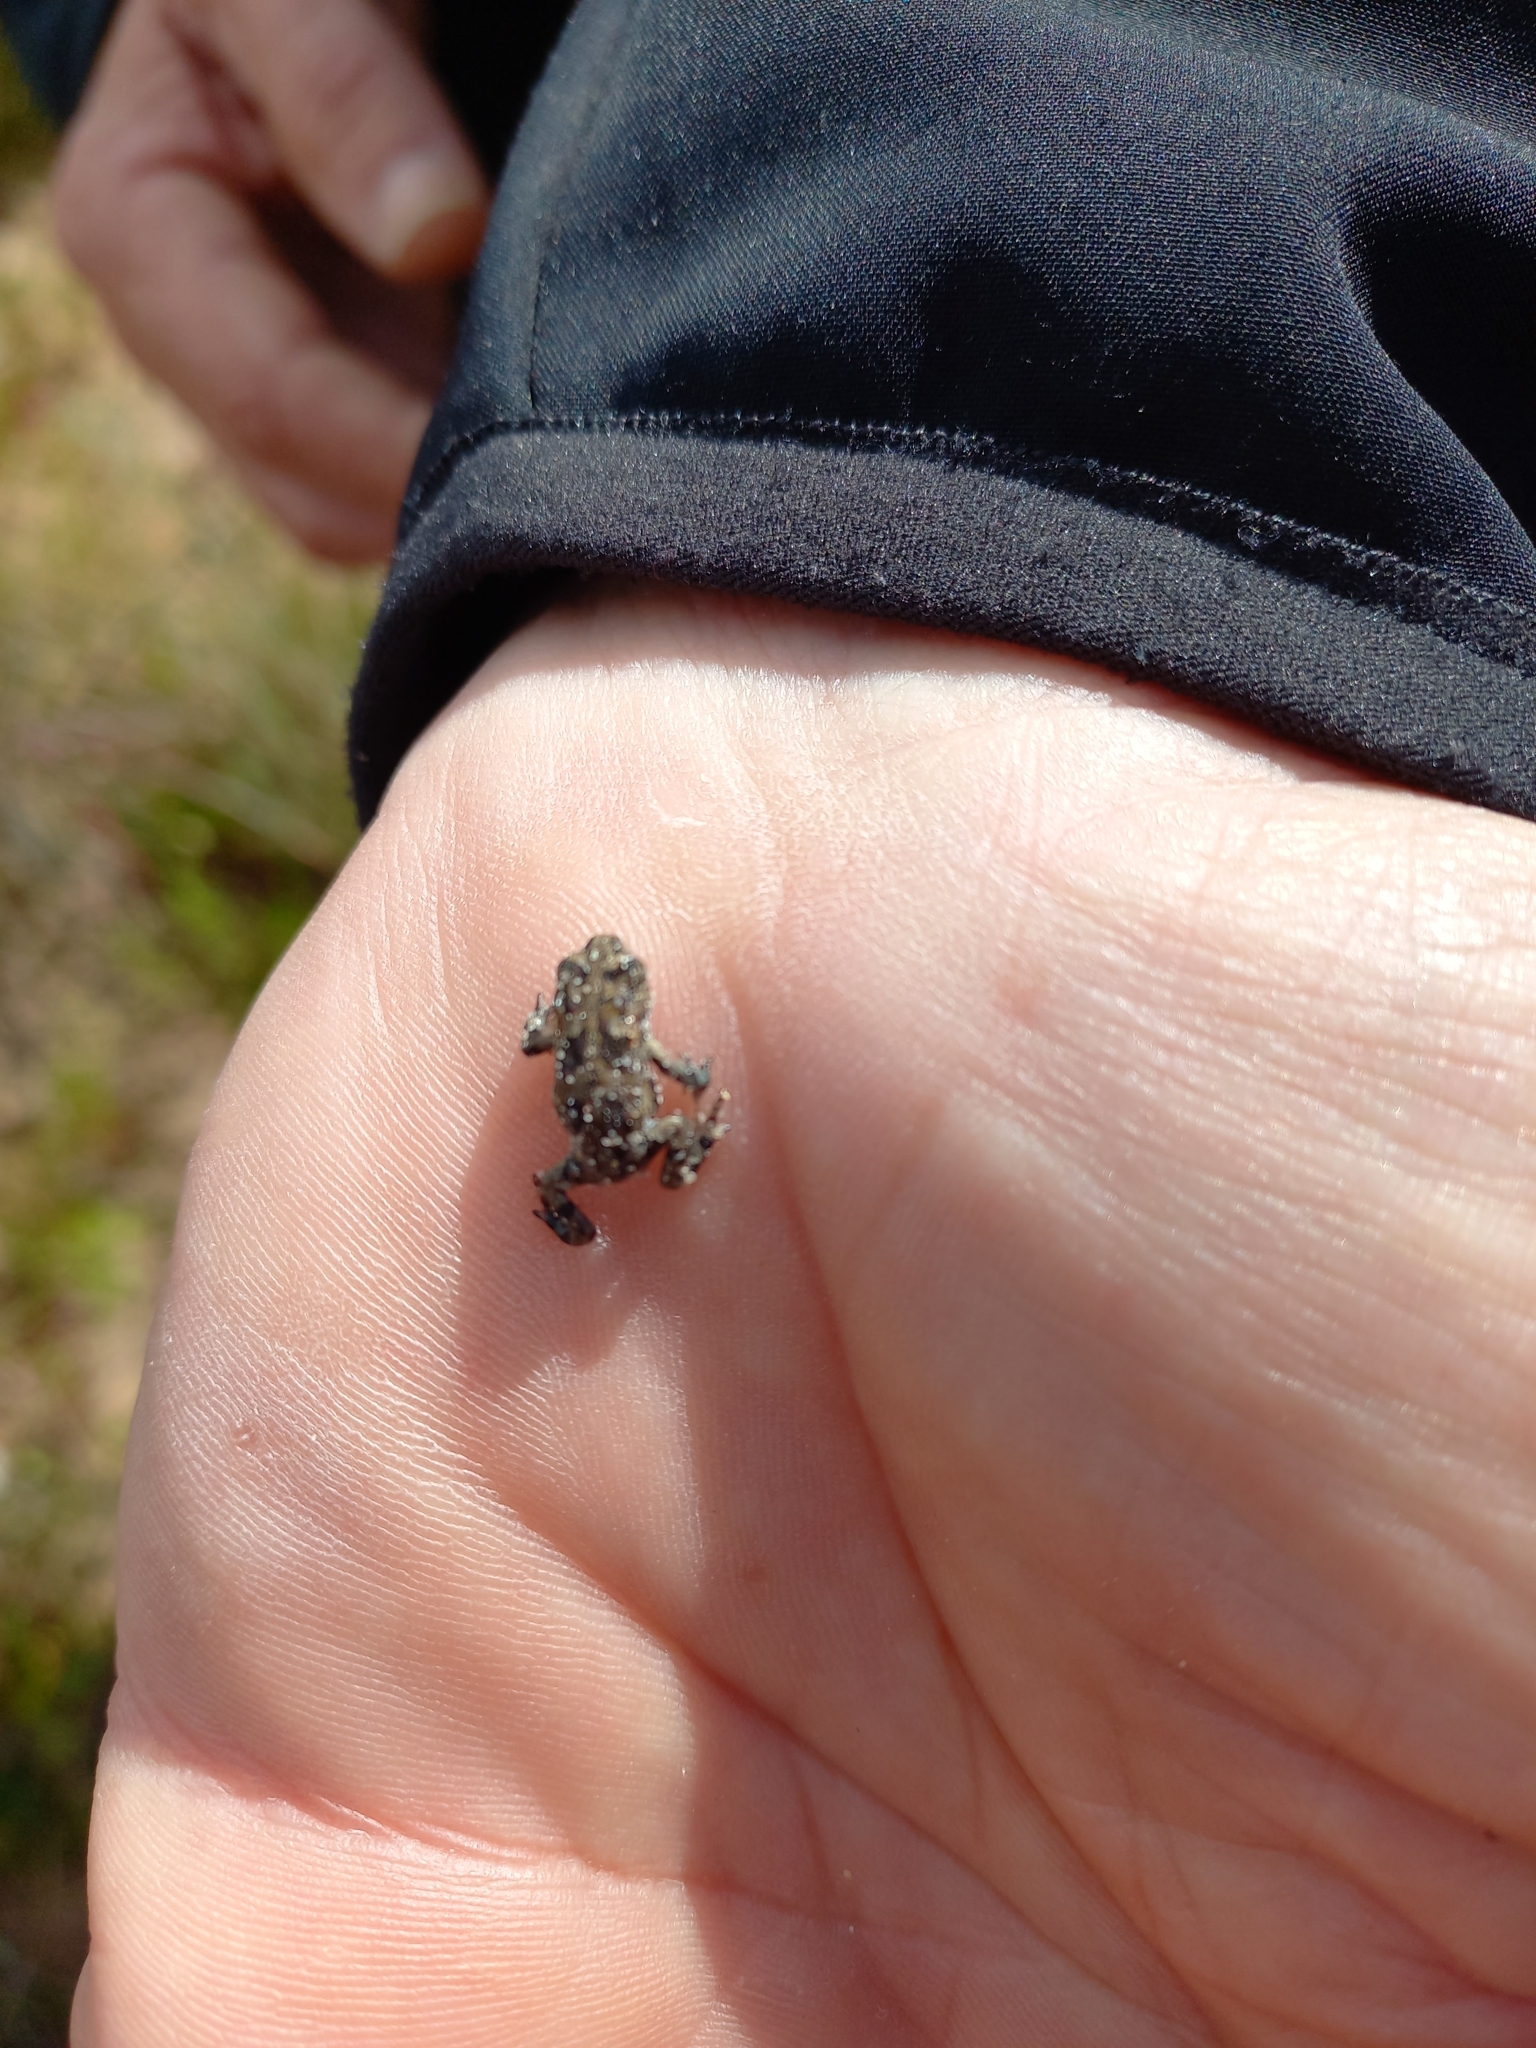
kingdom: Animalia
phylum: Chordata
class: Amphibia
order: Anura
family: Bufonidae
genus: Vandijkophrynus
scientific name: Vandijkophrynus angusticeps
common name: Sand toad
